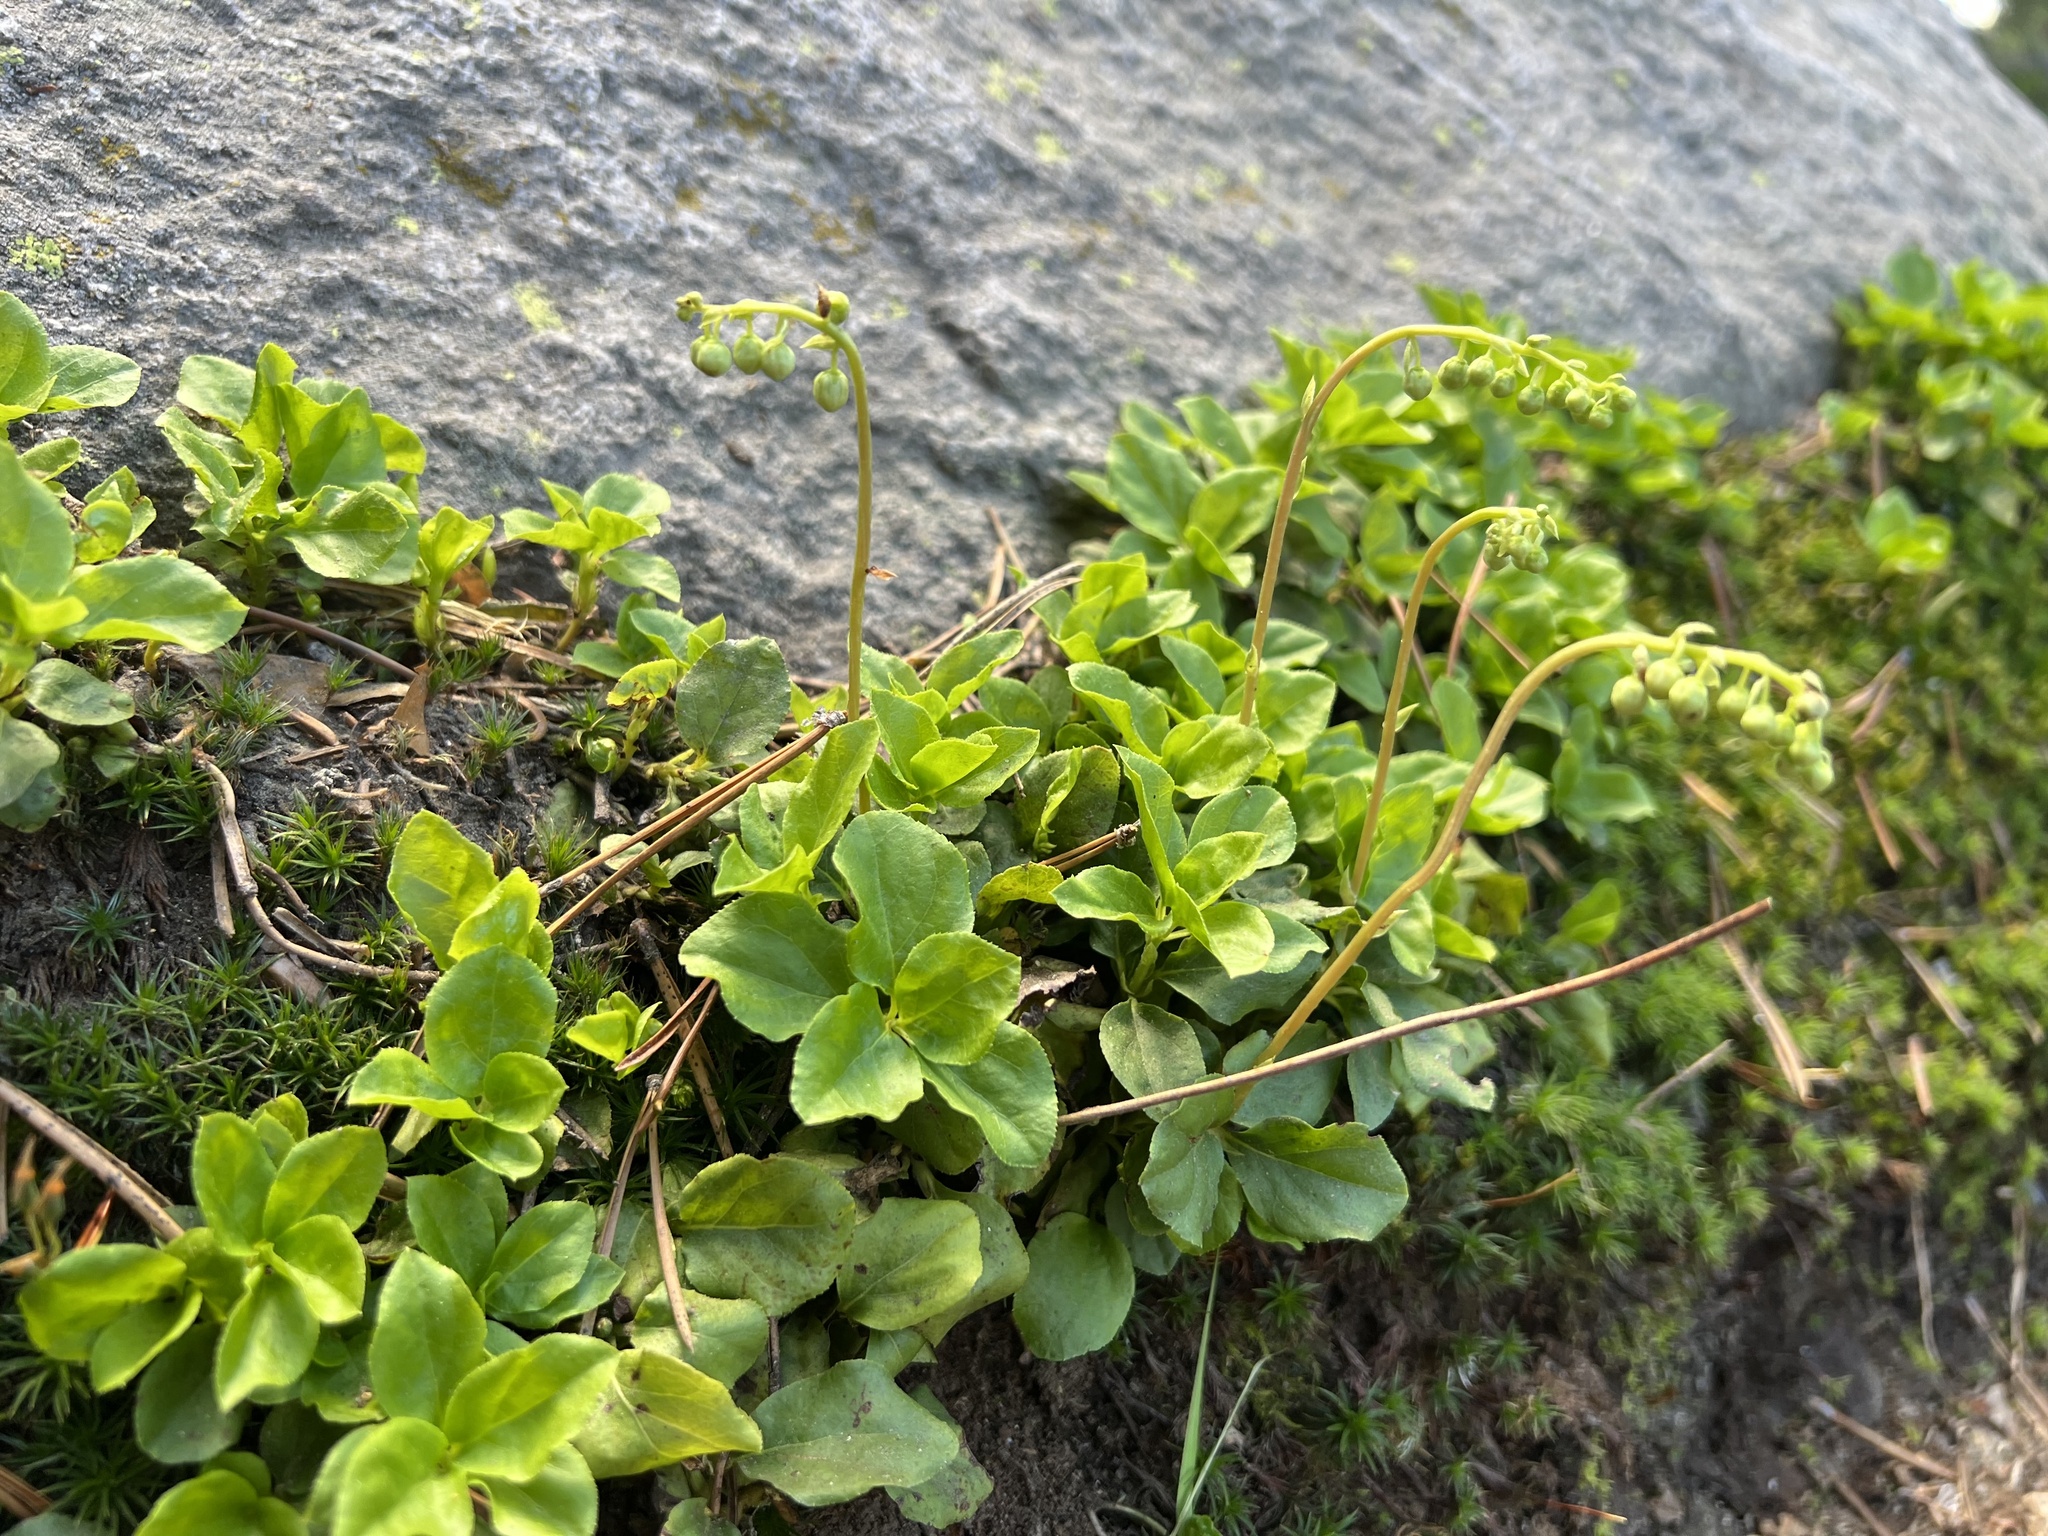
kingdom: Plantae
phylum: Tracheophyta
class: Magnoliopsida
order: Ericales
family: Ericaceae
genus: Orthilia
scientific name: Orthilia secunda
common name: One-sided orthilia
